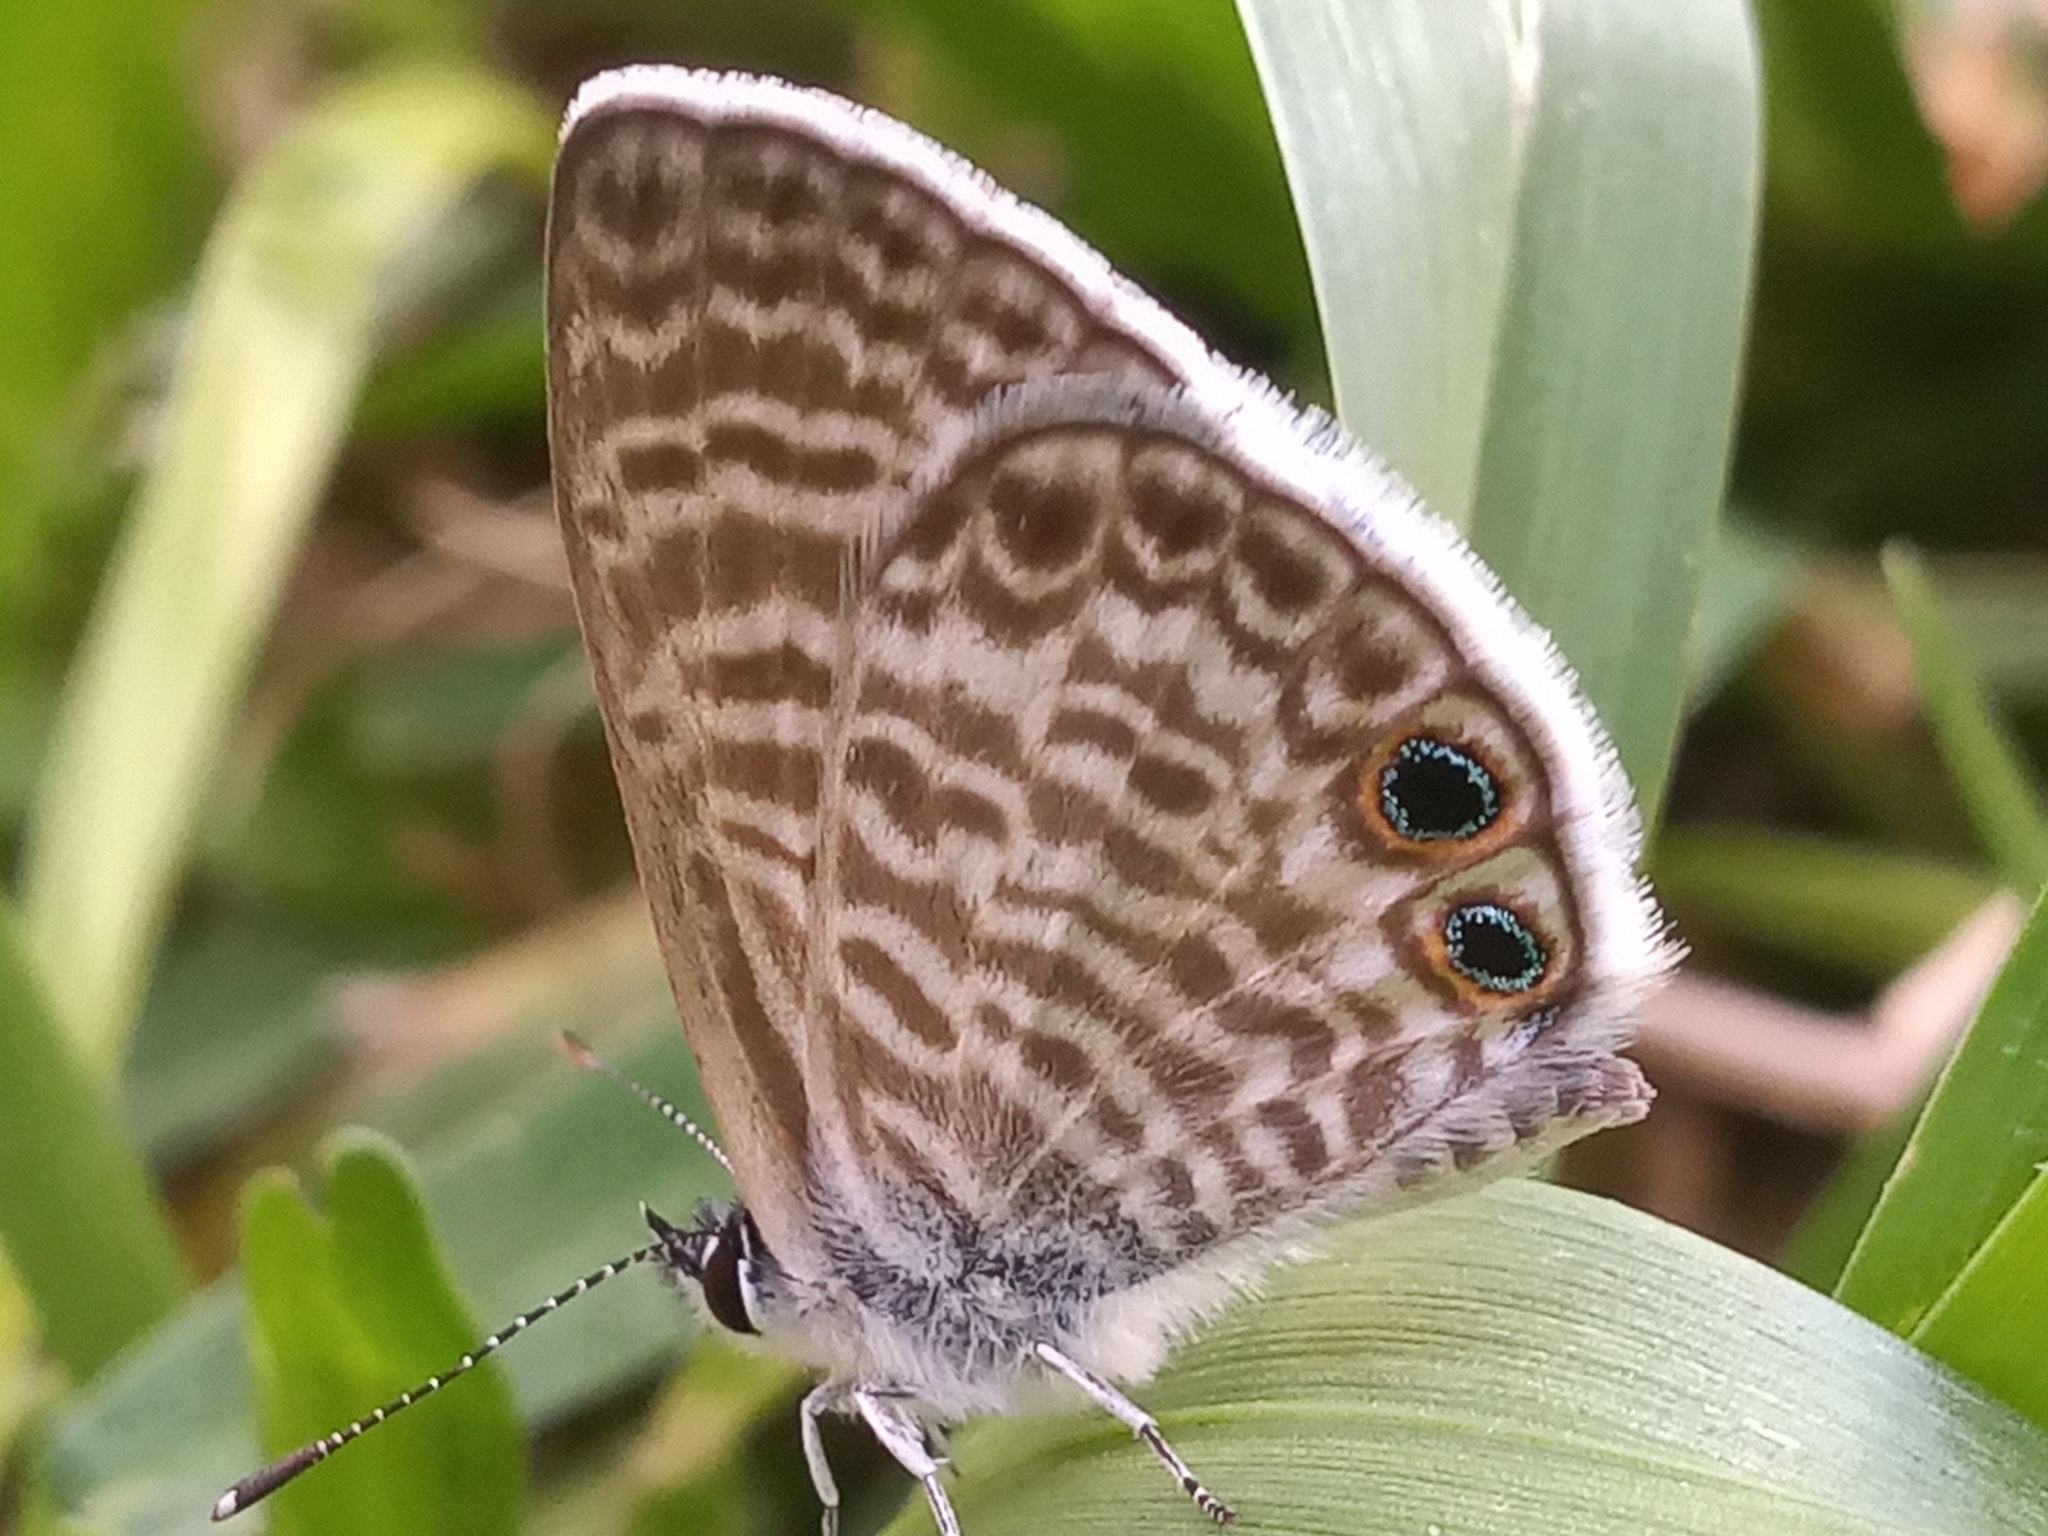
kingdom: Animalia
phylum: Arthropoda
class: Insecta
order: Lepidoptera
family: Lycaenidae
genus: Leptotes
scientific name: Leptotes marina
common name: Marine blue
